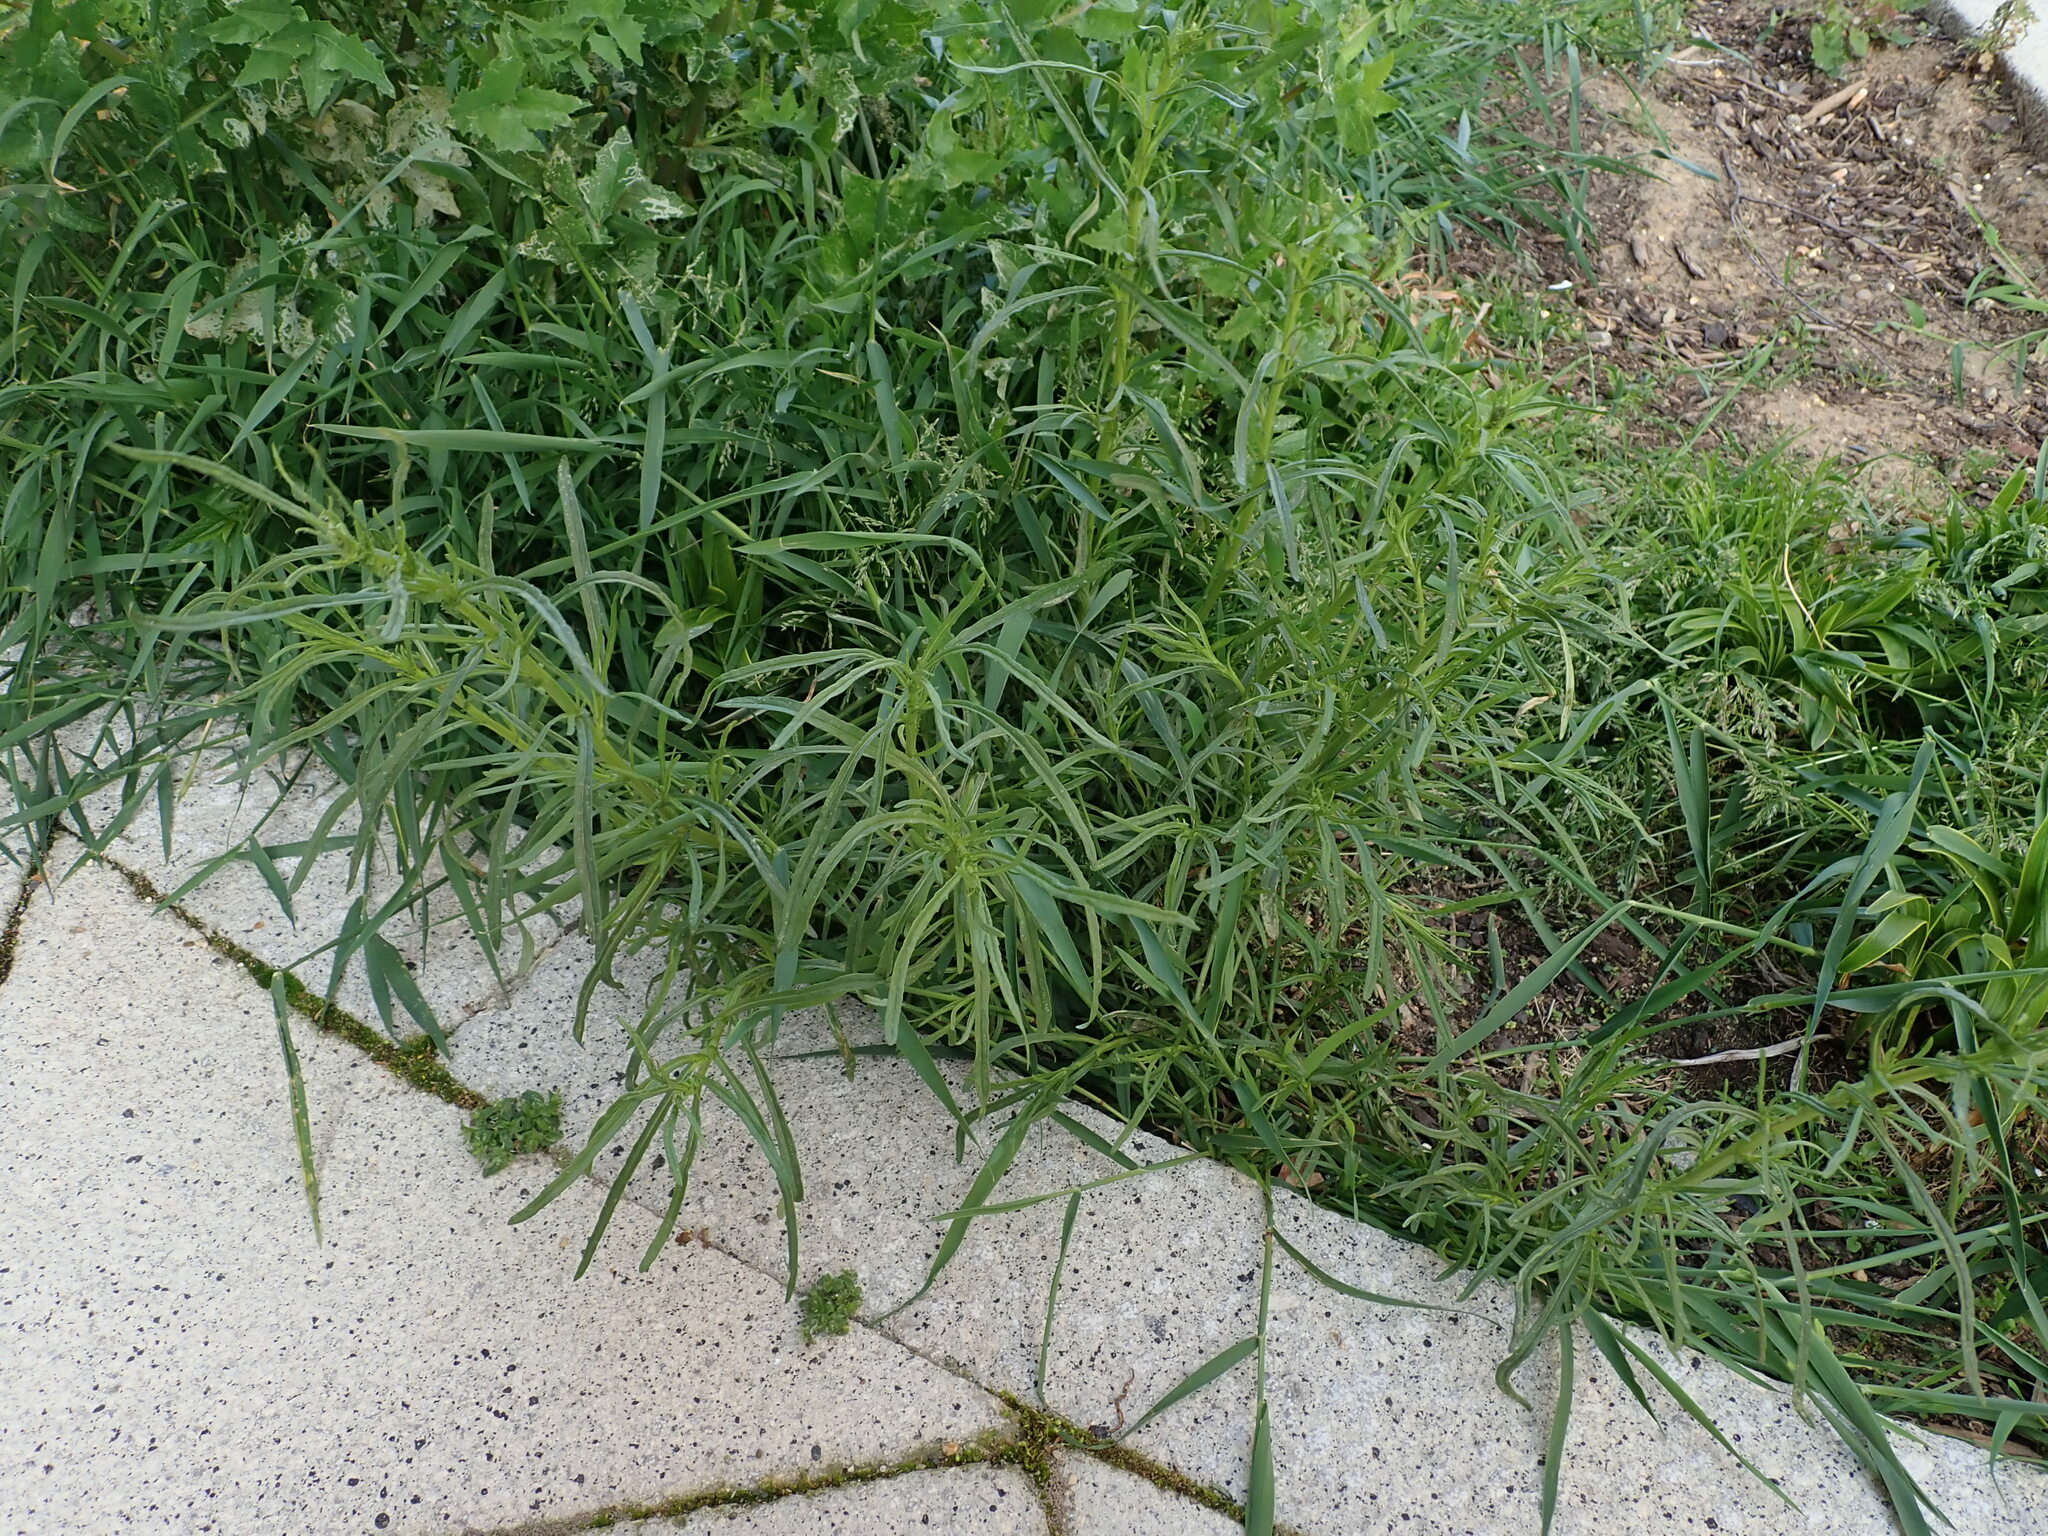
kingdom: Plantae
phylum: Tracheophyta
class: Magnoliopsida
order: Asterales
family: Asteraceae
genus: Senecio
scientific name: Senecio inaequidens
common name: Narrow-leaved ragwort
